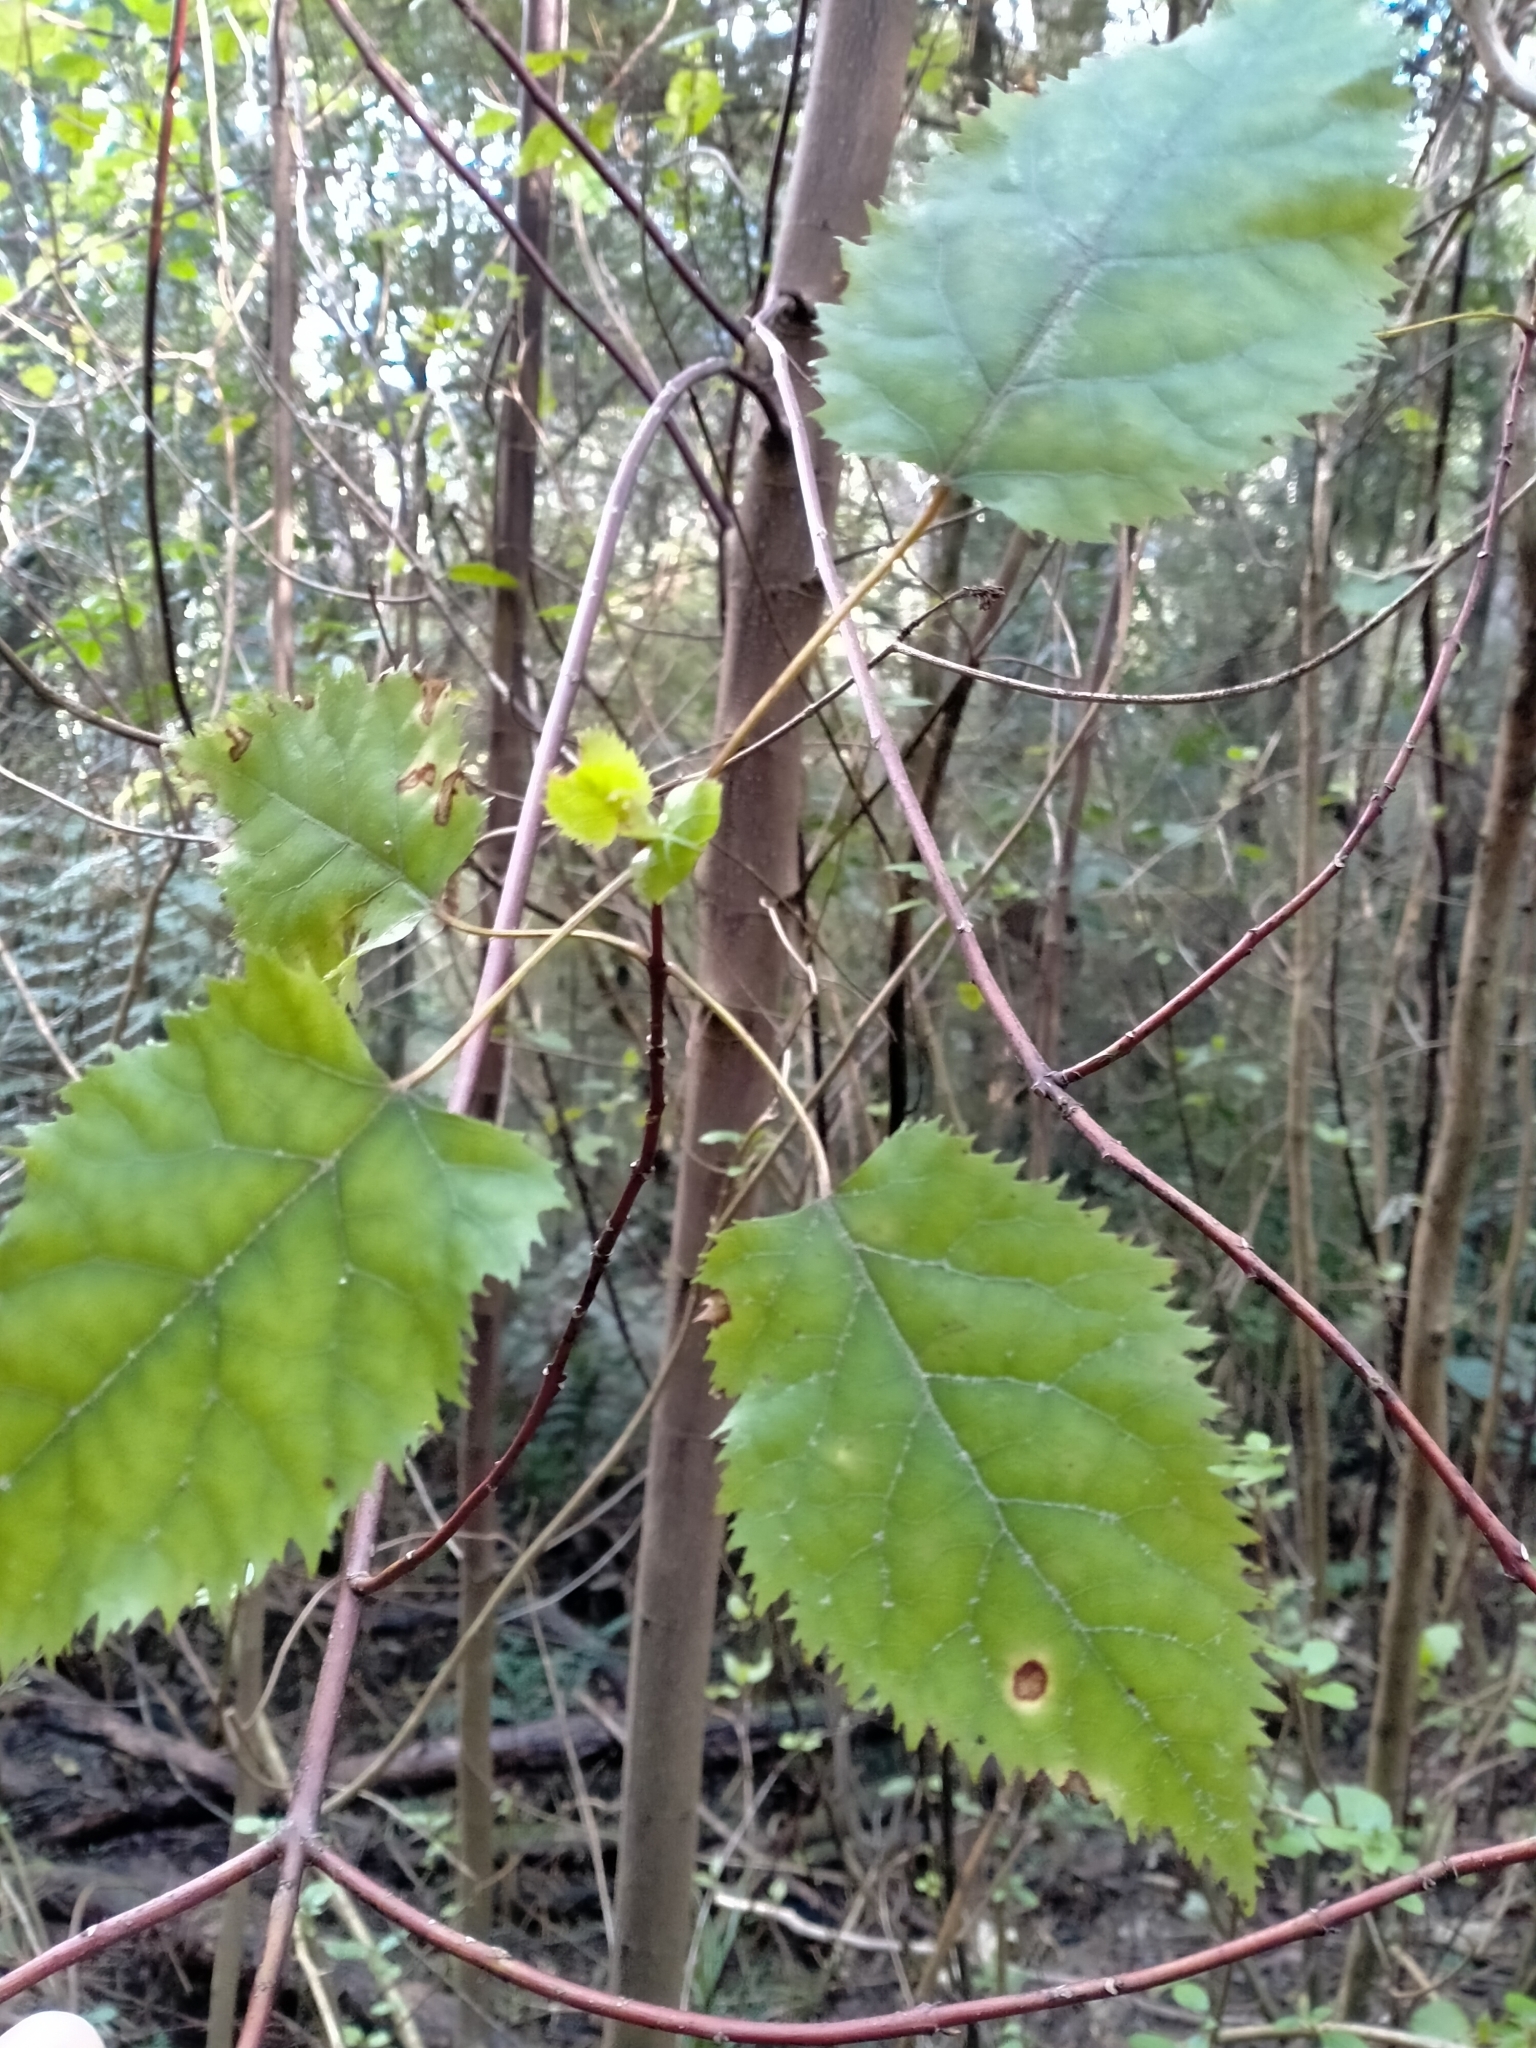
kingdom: Plantae
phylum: Tracheophyta
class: Magnoliopsida
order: Oxalidales
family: Elaeocarpaceae
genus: Aristotelia
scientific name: Aristotelia serrata
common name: New zealand wineberry
